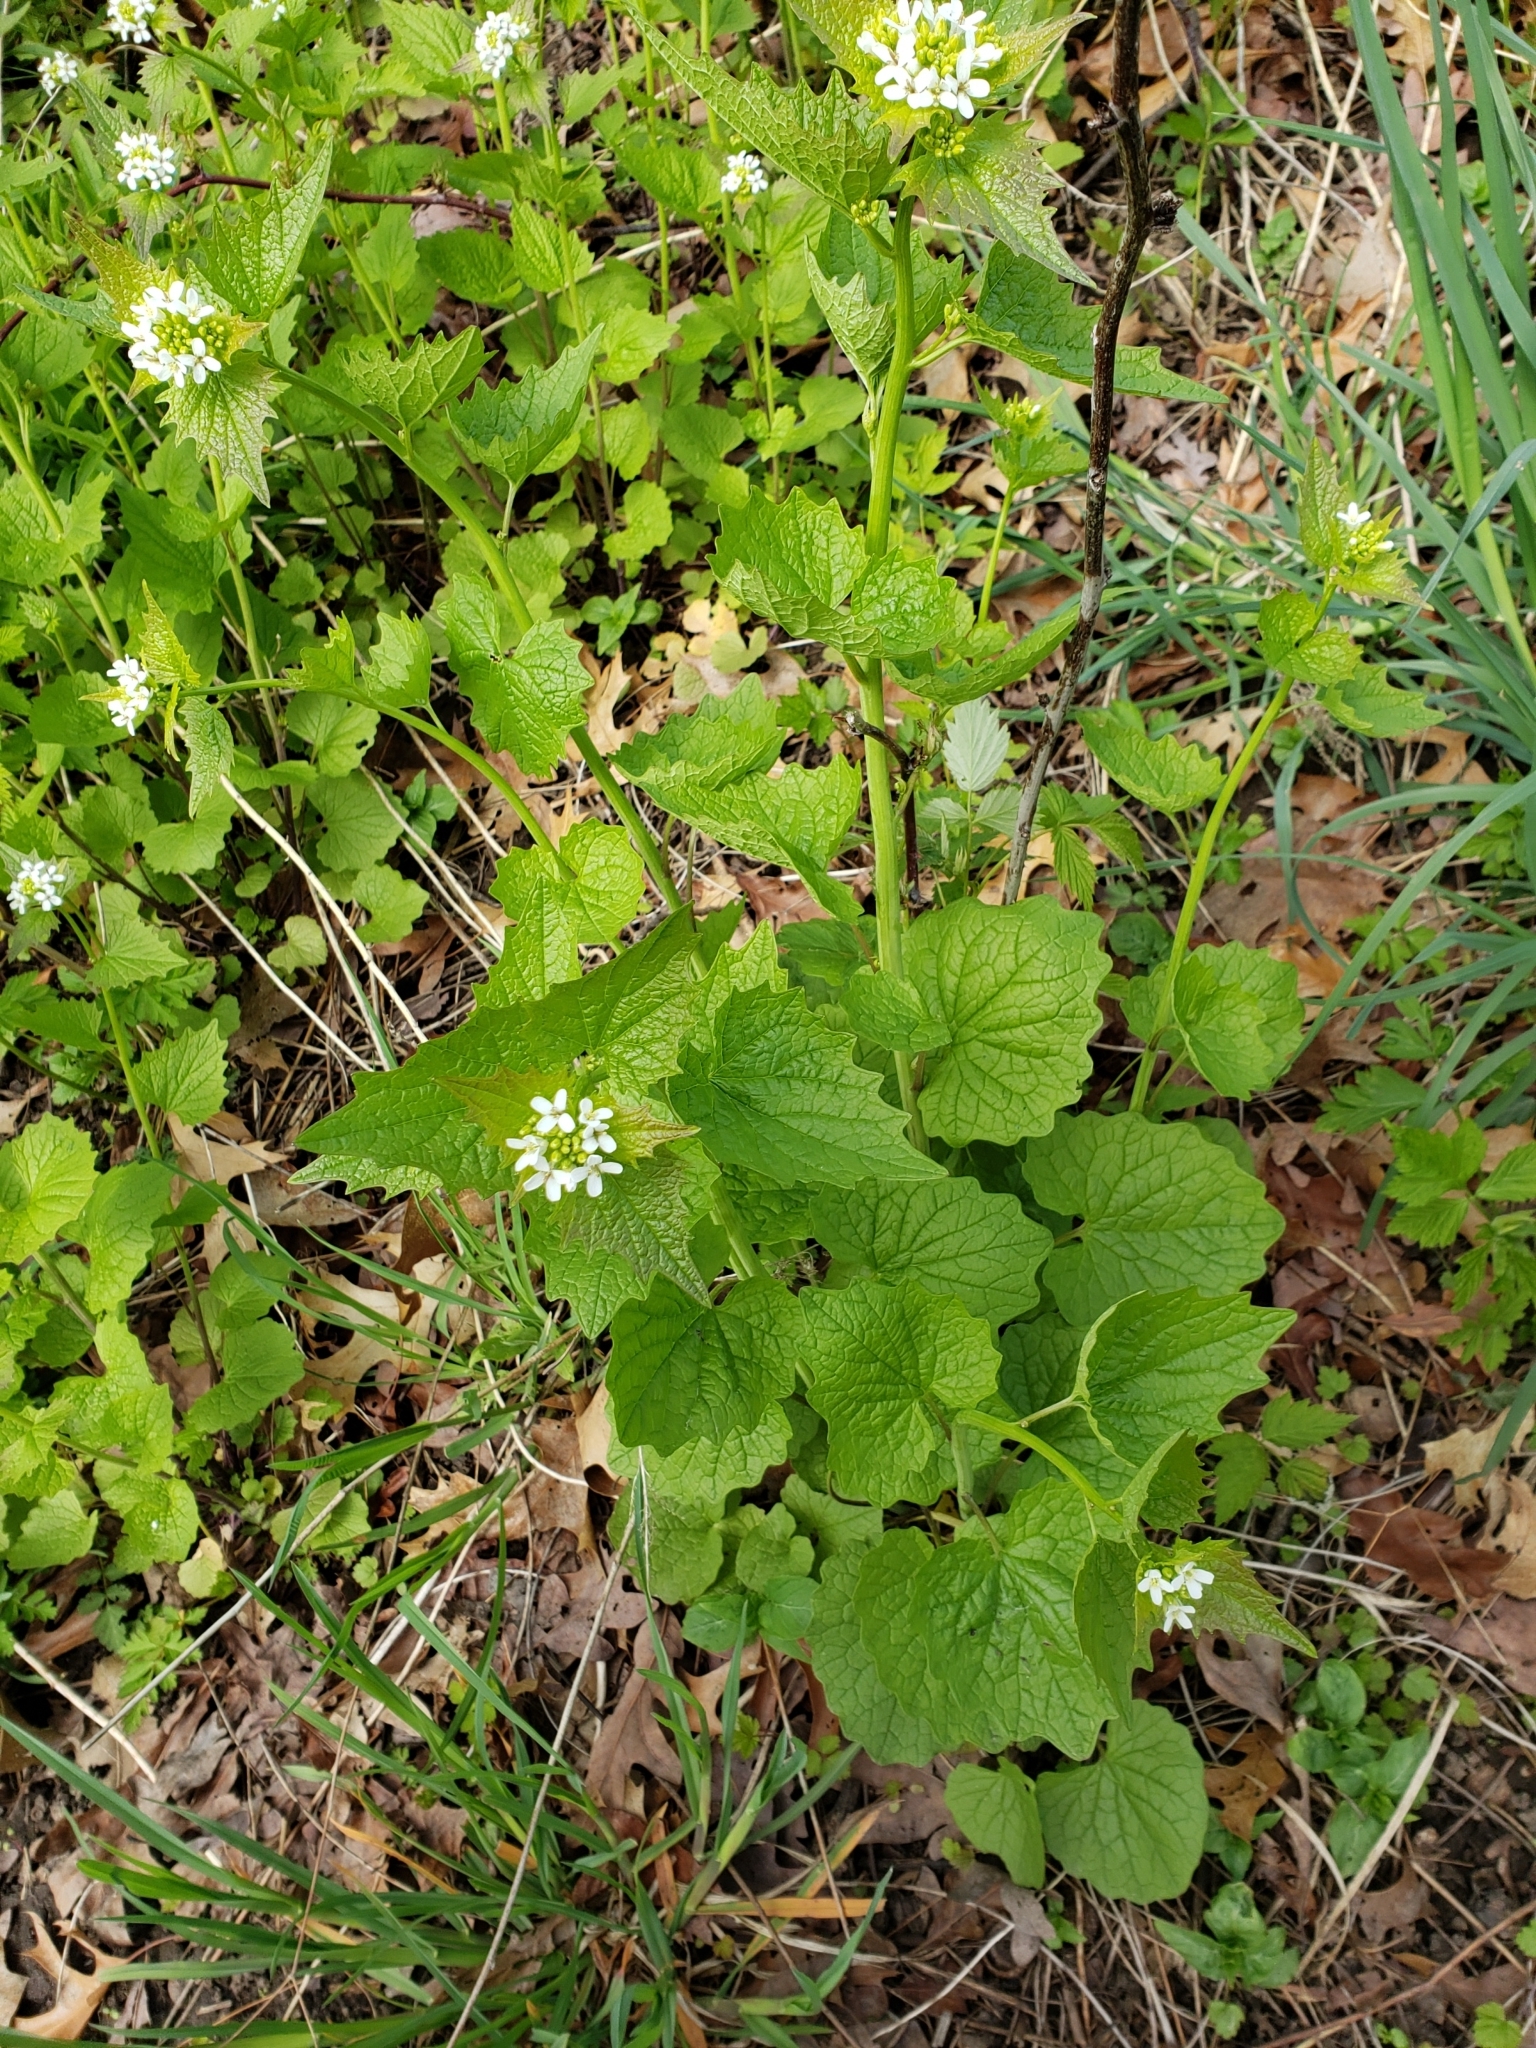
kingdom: Plantae
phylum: Tracheophyta
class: Magnoliopsida
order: Brassicales
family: Brassicaceae
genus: Alliaria
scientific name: Alliaria petiolata
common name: Garlic mustard
